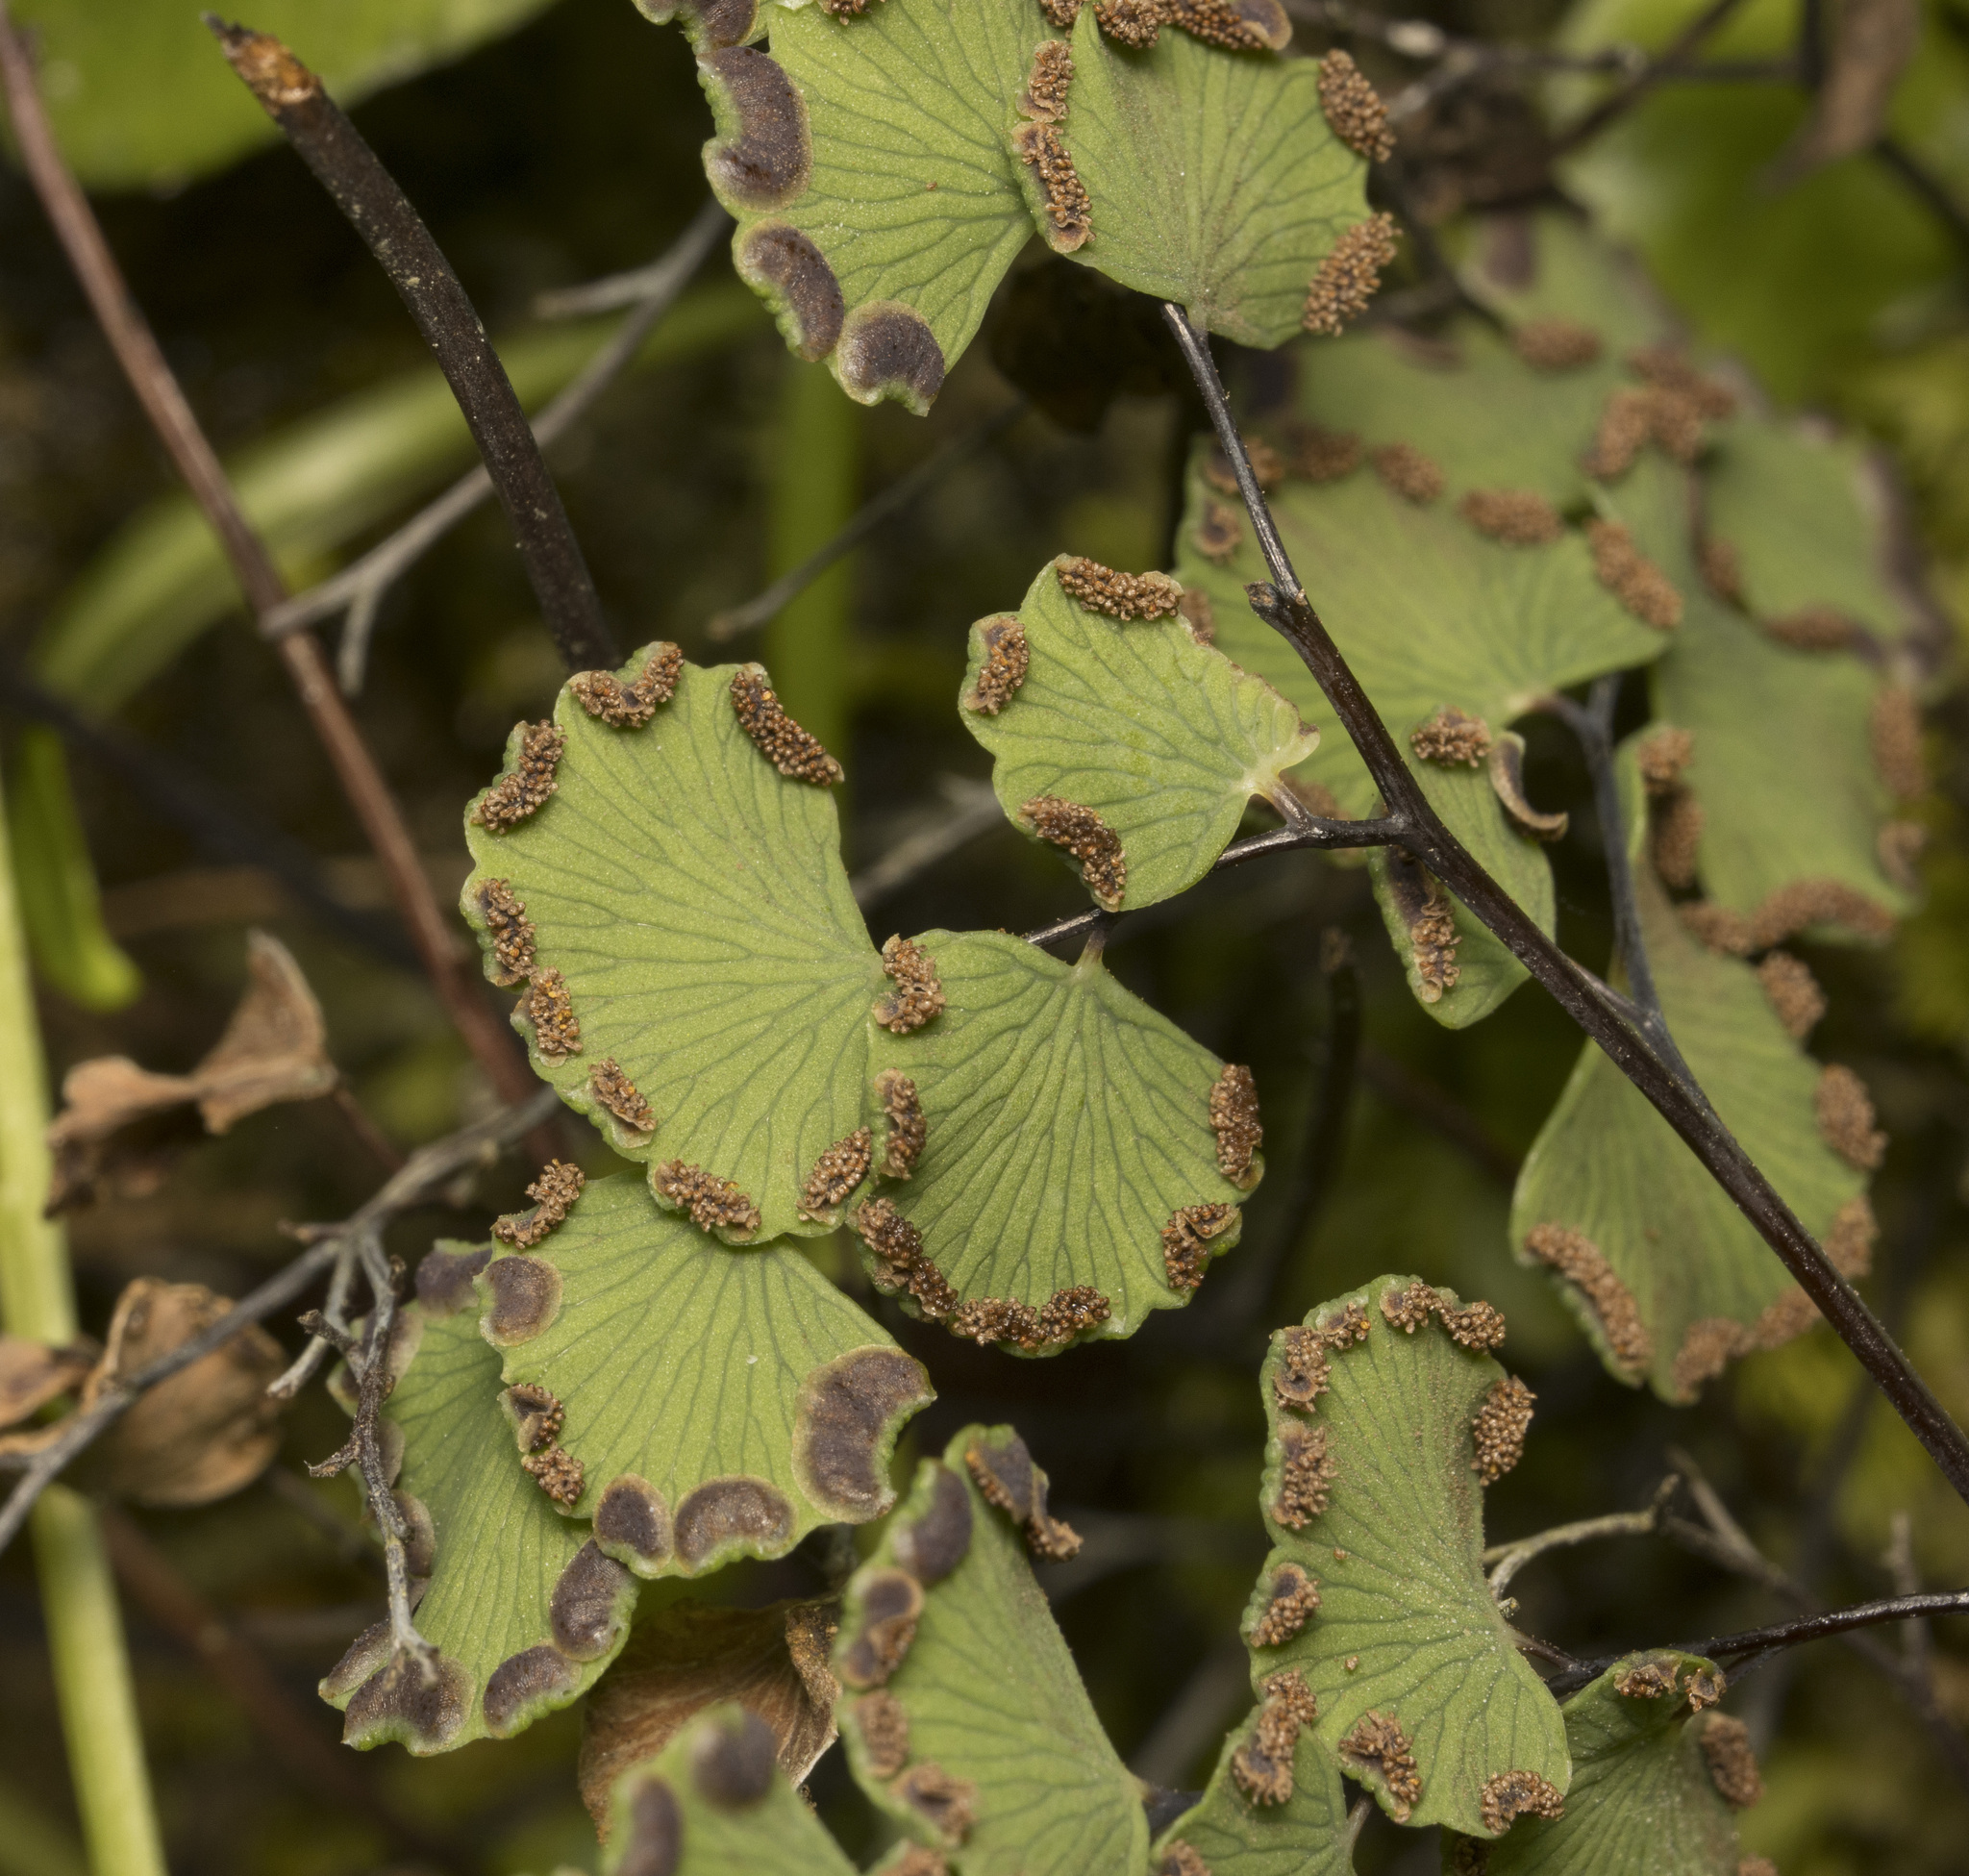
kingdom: Plantae
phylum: Tracheophyta
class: Polypodiopsida
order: Polypodiales
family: Pteridaceae
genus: Adiantum
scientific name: Adiantum chilense
